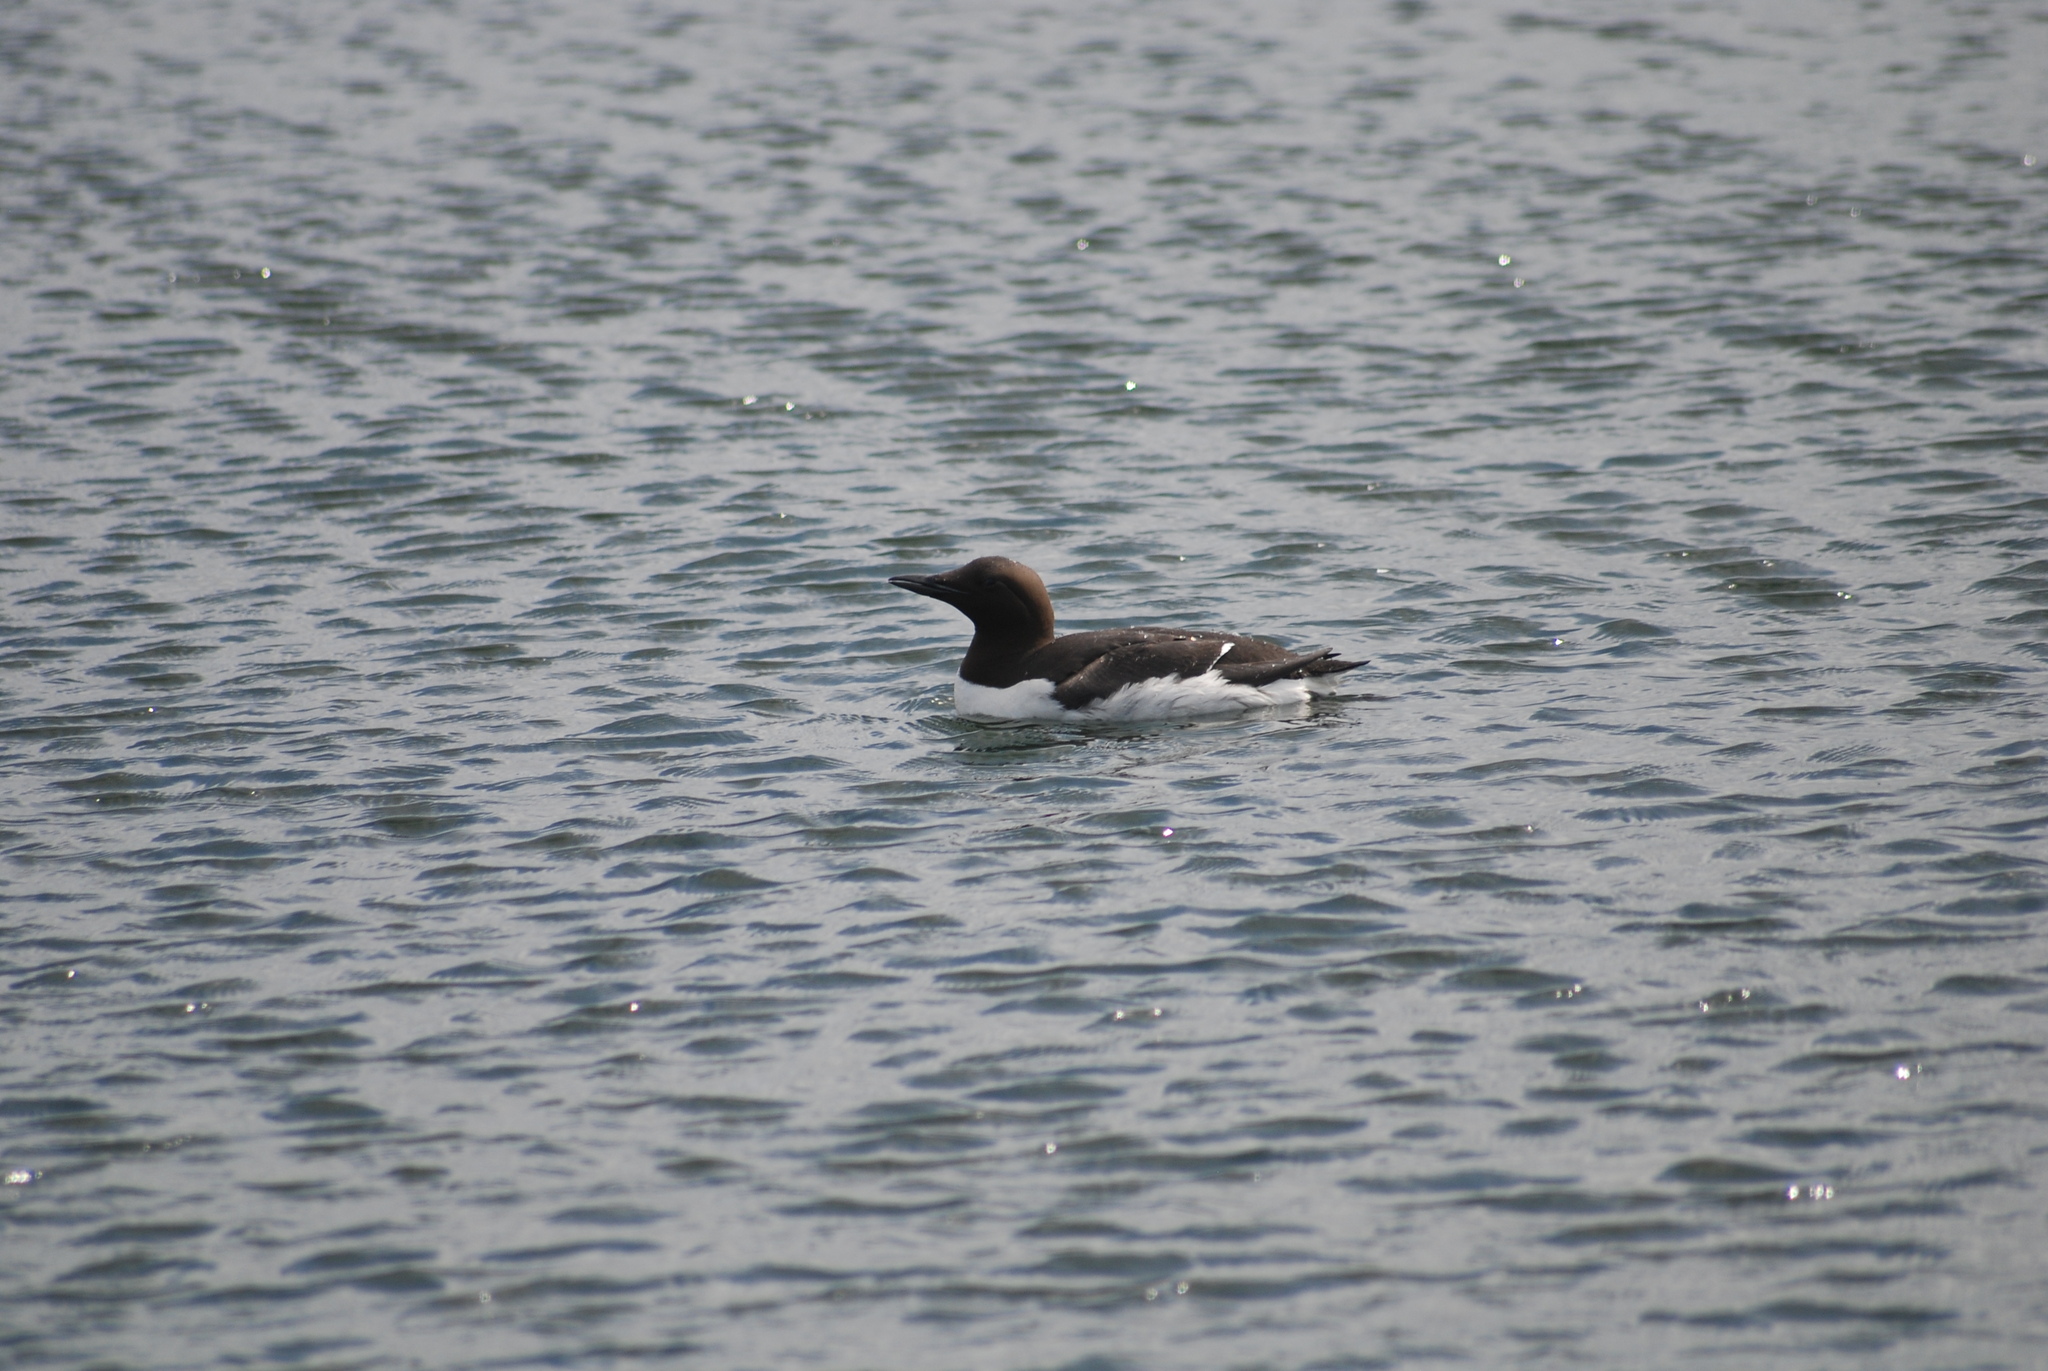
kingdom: Animalia
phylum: Chordata
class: Aves
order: Charadriiformes
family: Alcidae
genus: Uria
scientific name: Uria aalge
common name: Common murre
